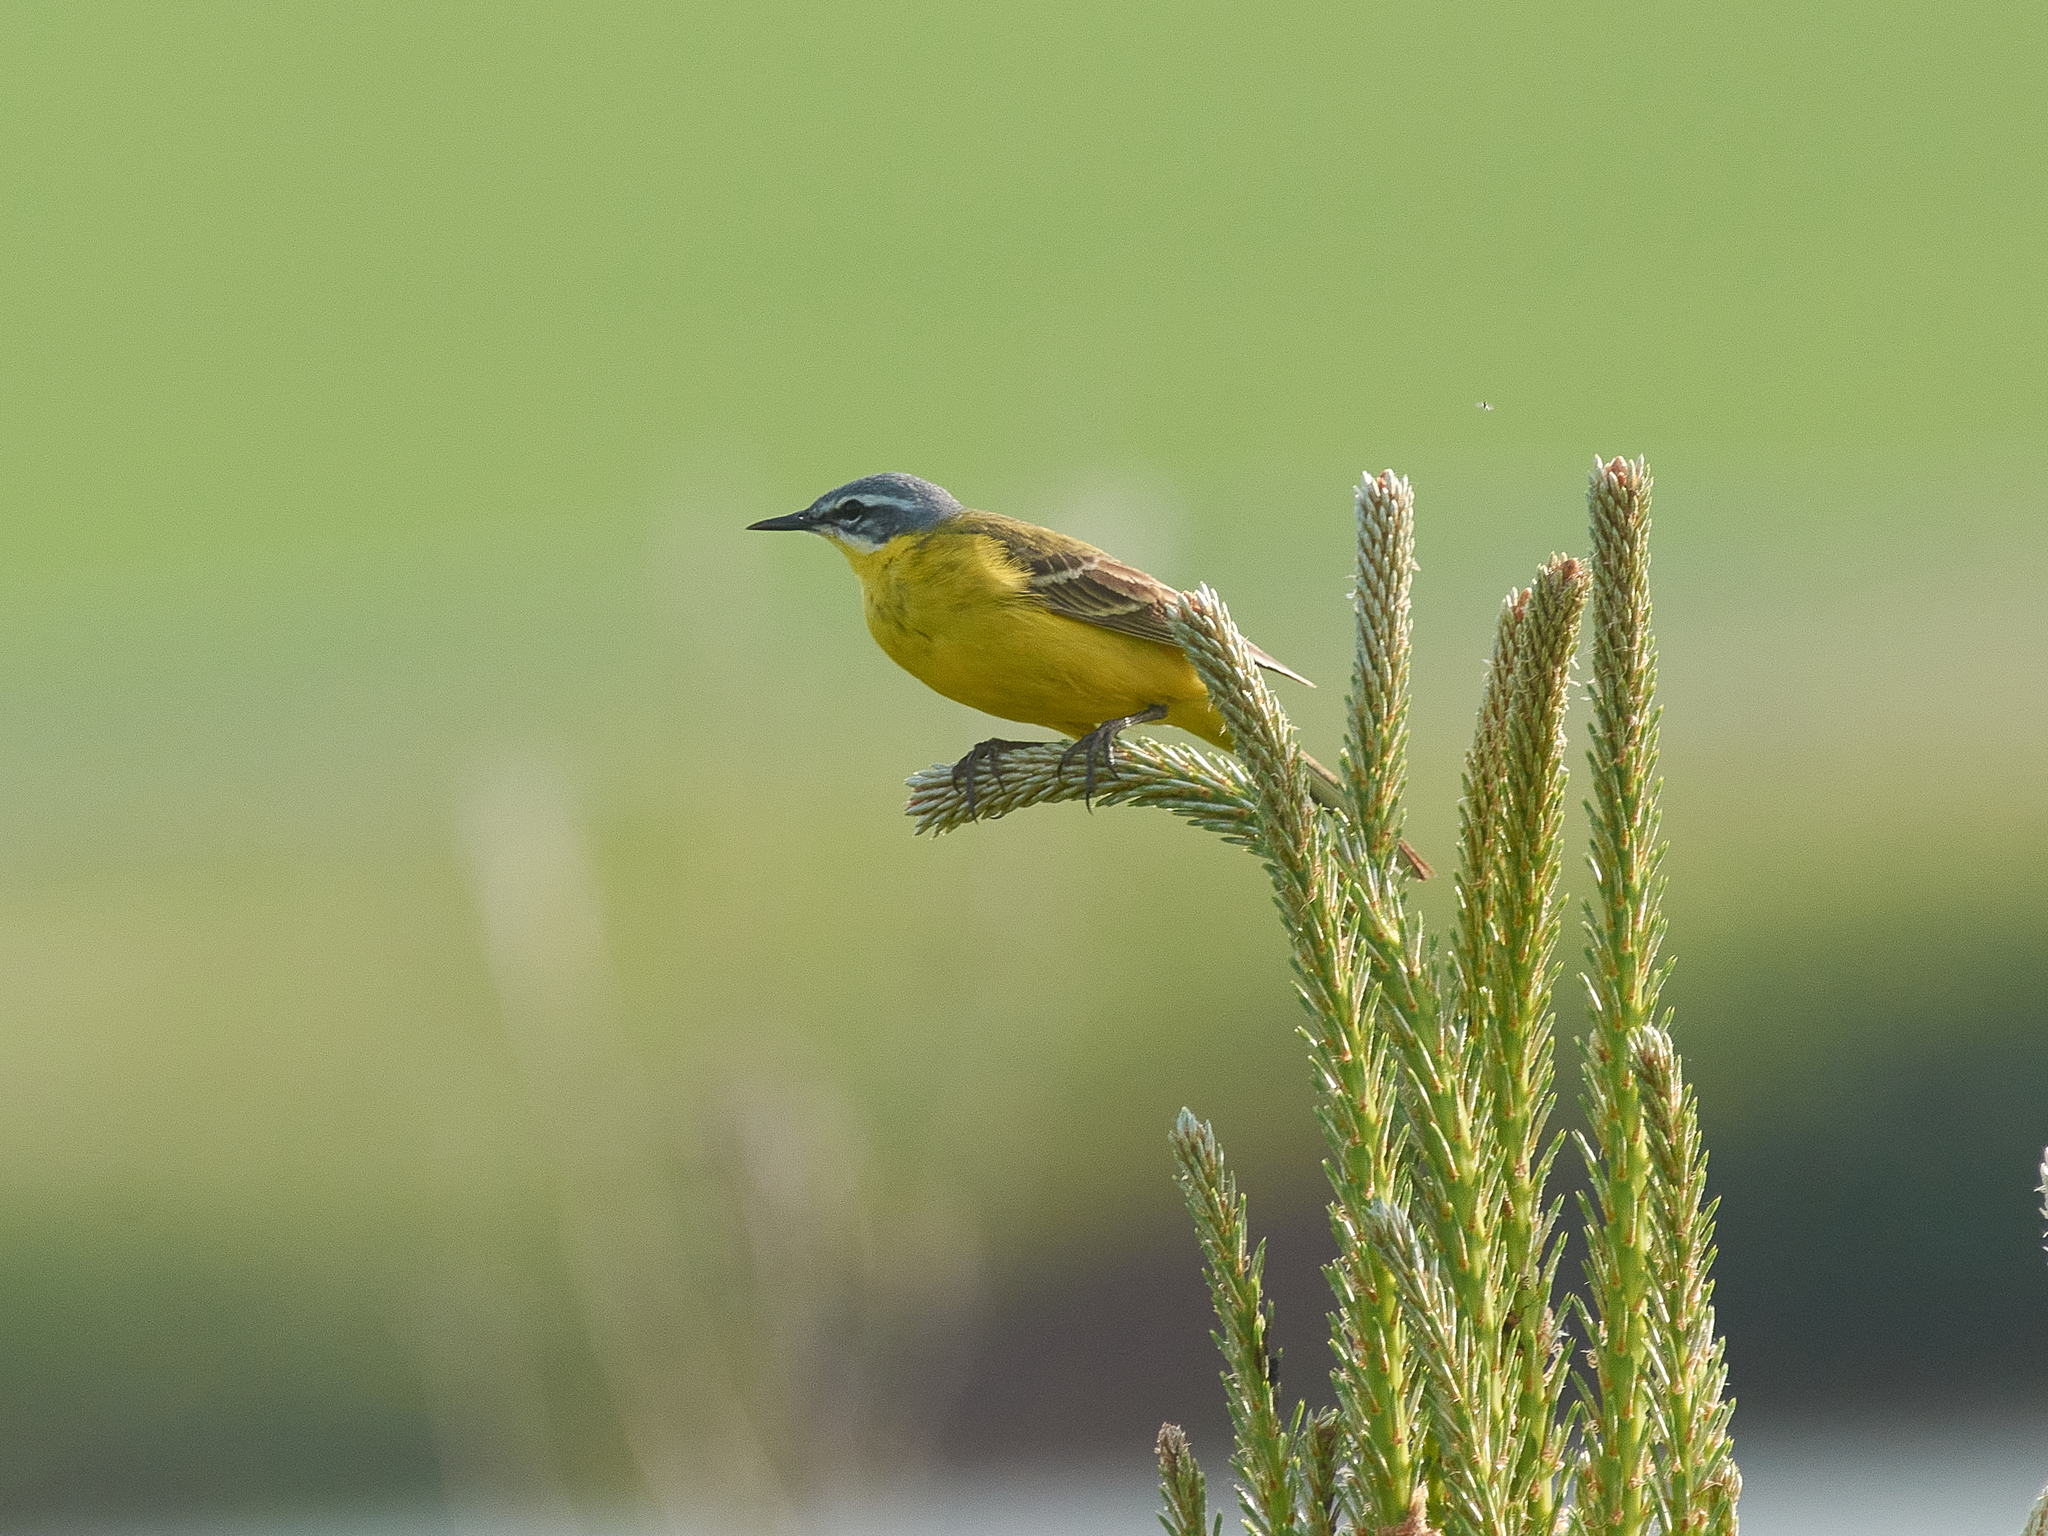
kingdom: Animalia
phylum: Chordata
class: Aves
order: Passeriformes
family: Motacillidae
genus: Motacilla
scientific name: Motacilla flava
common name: Western yellow wagtail
